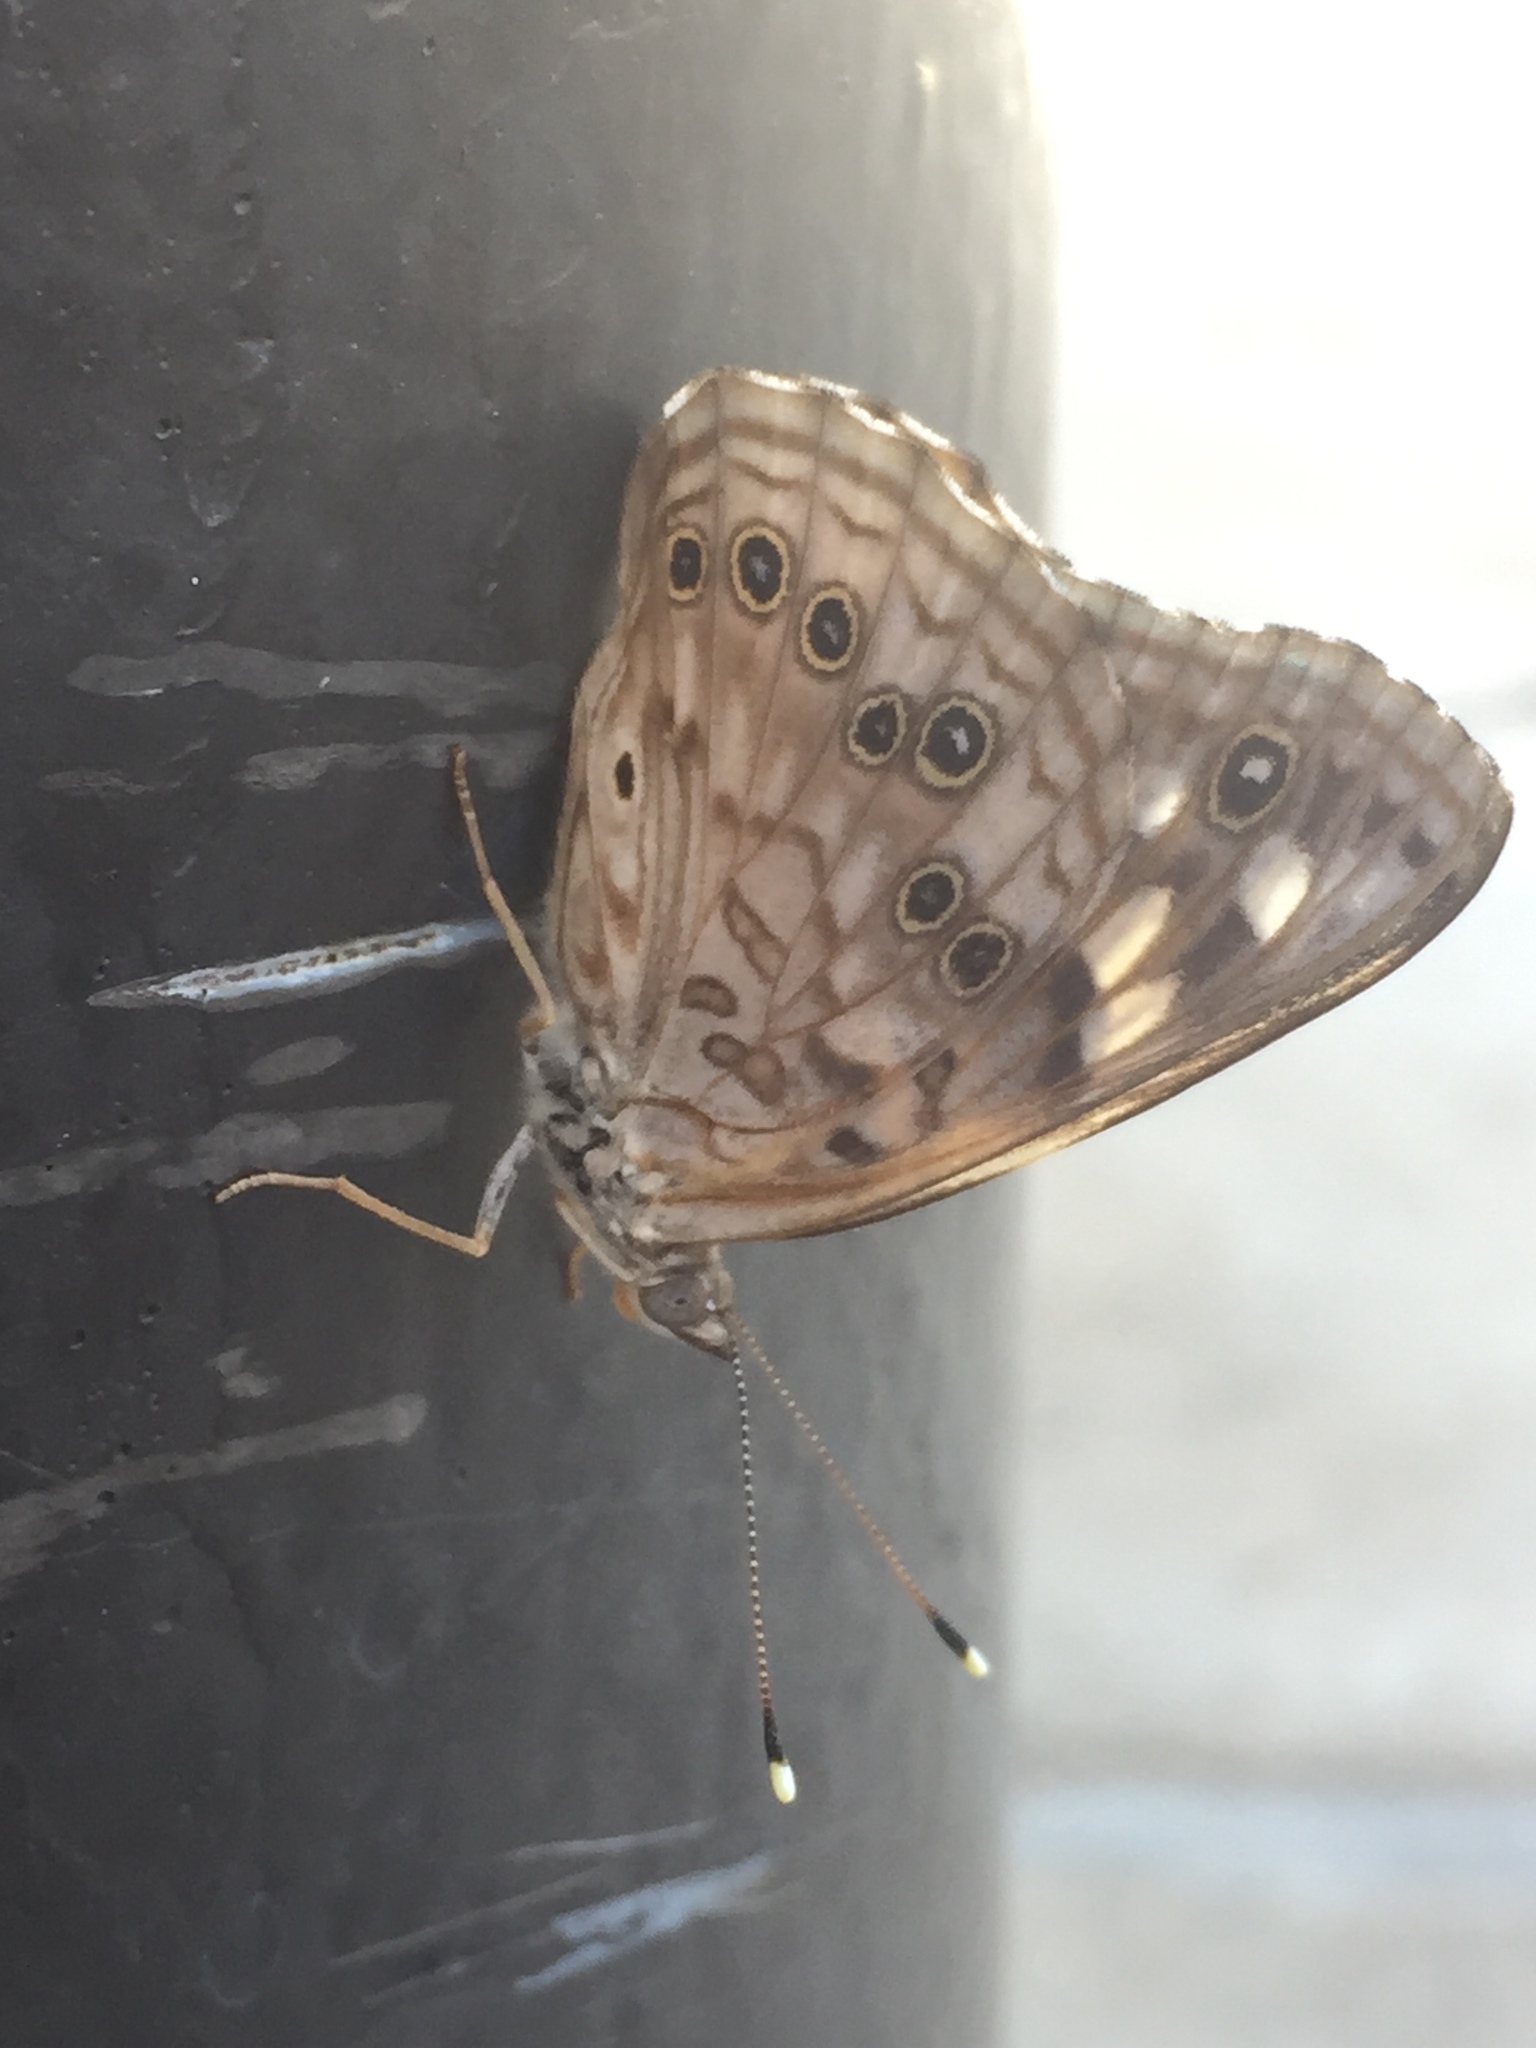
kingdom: Animalia
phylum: Arthropoda
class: Insecta
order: Lepidoptera
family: Nymphalidae
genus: Asterocampa
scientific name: Asterocampa celtis
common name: Hackberry emperor
